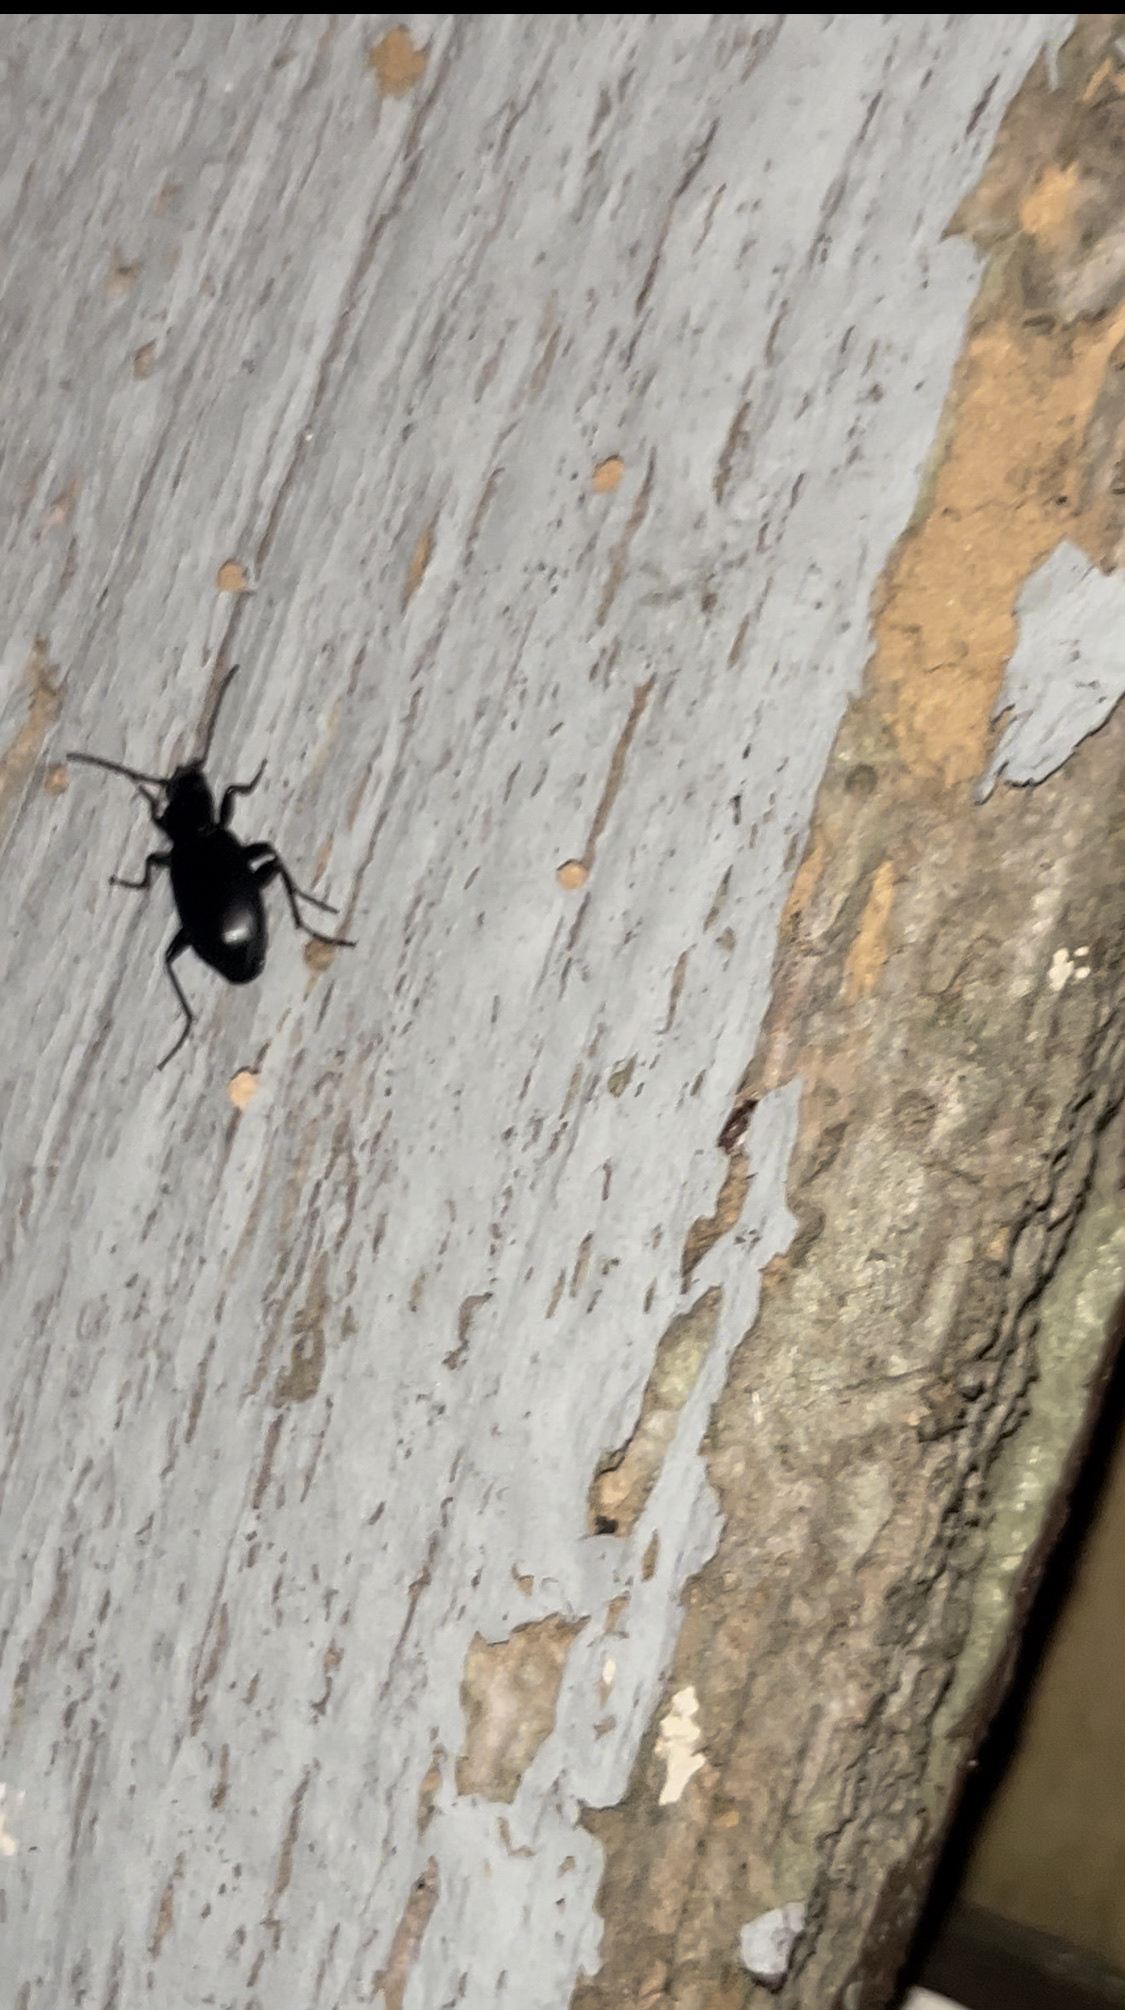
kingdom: Animalia
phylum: Arthropoda
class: Insecta
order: Coleoptera
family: Carabidae
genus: Laemostenus
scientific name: Laemostenus complanatus
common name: Cosmopolitan ground beetle
